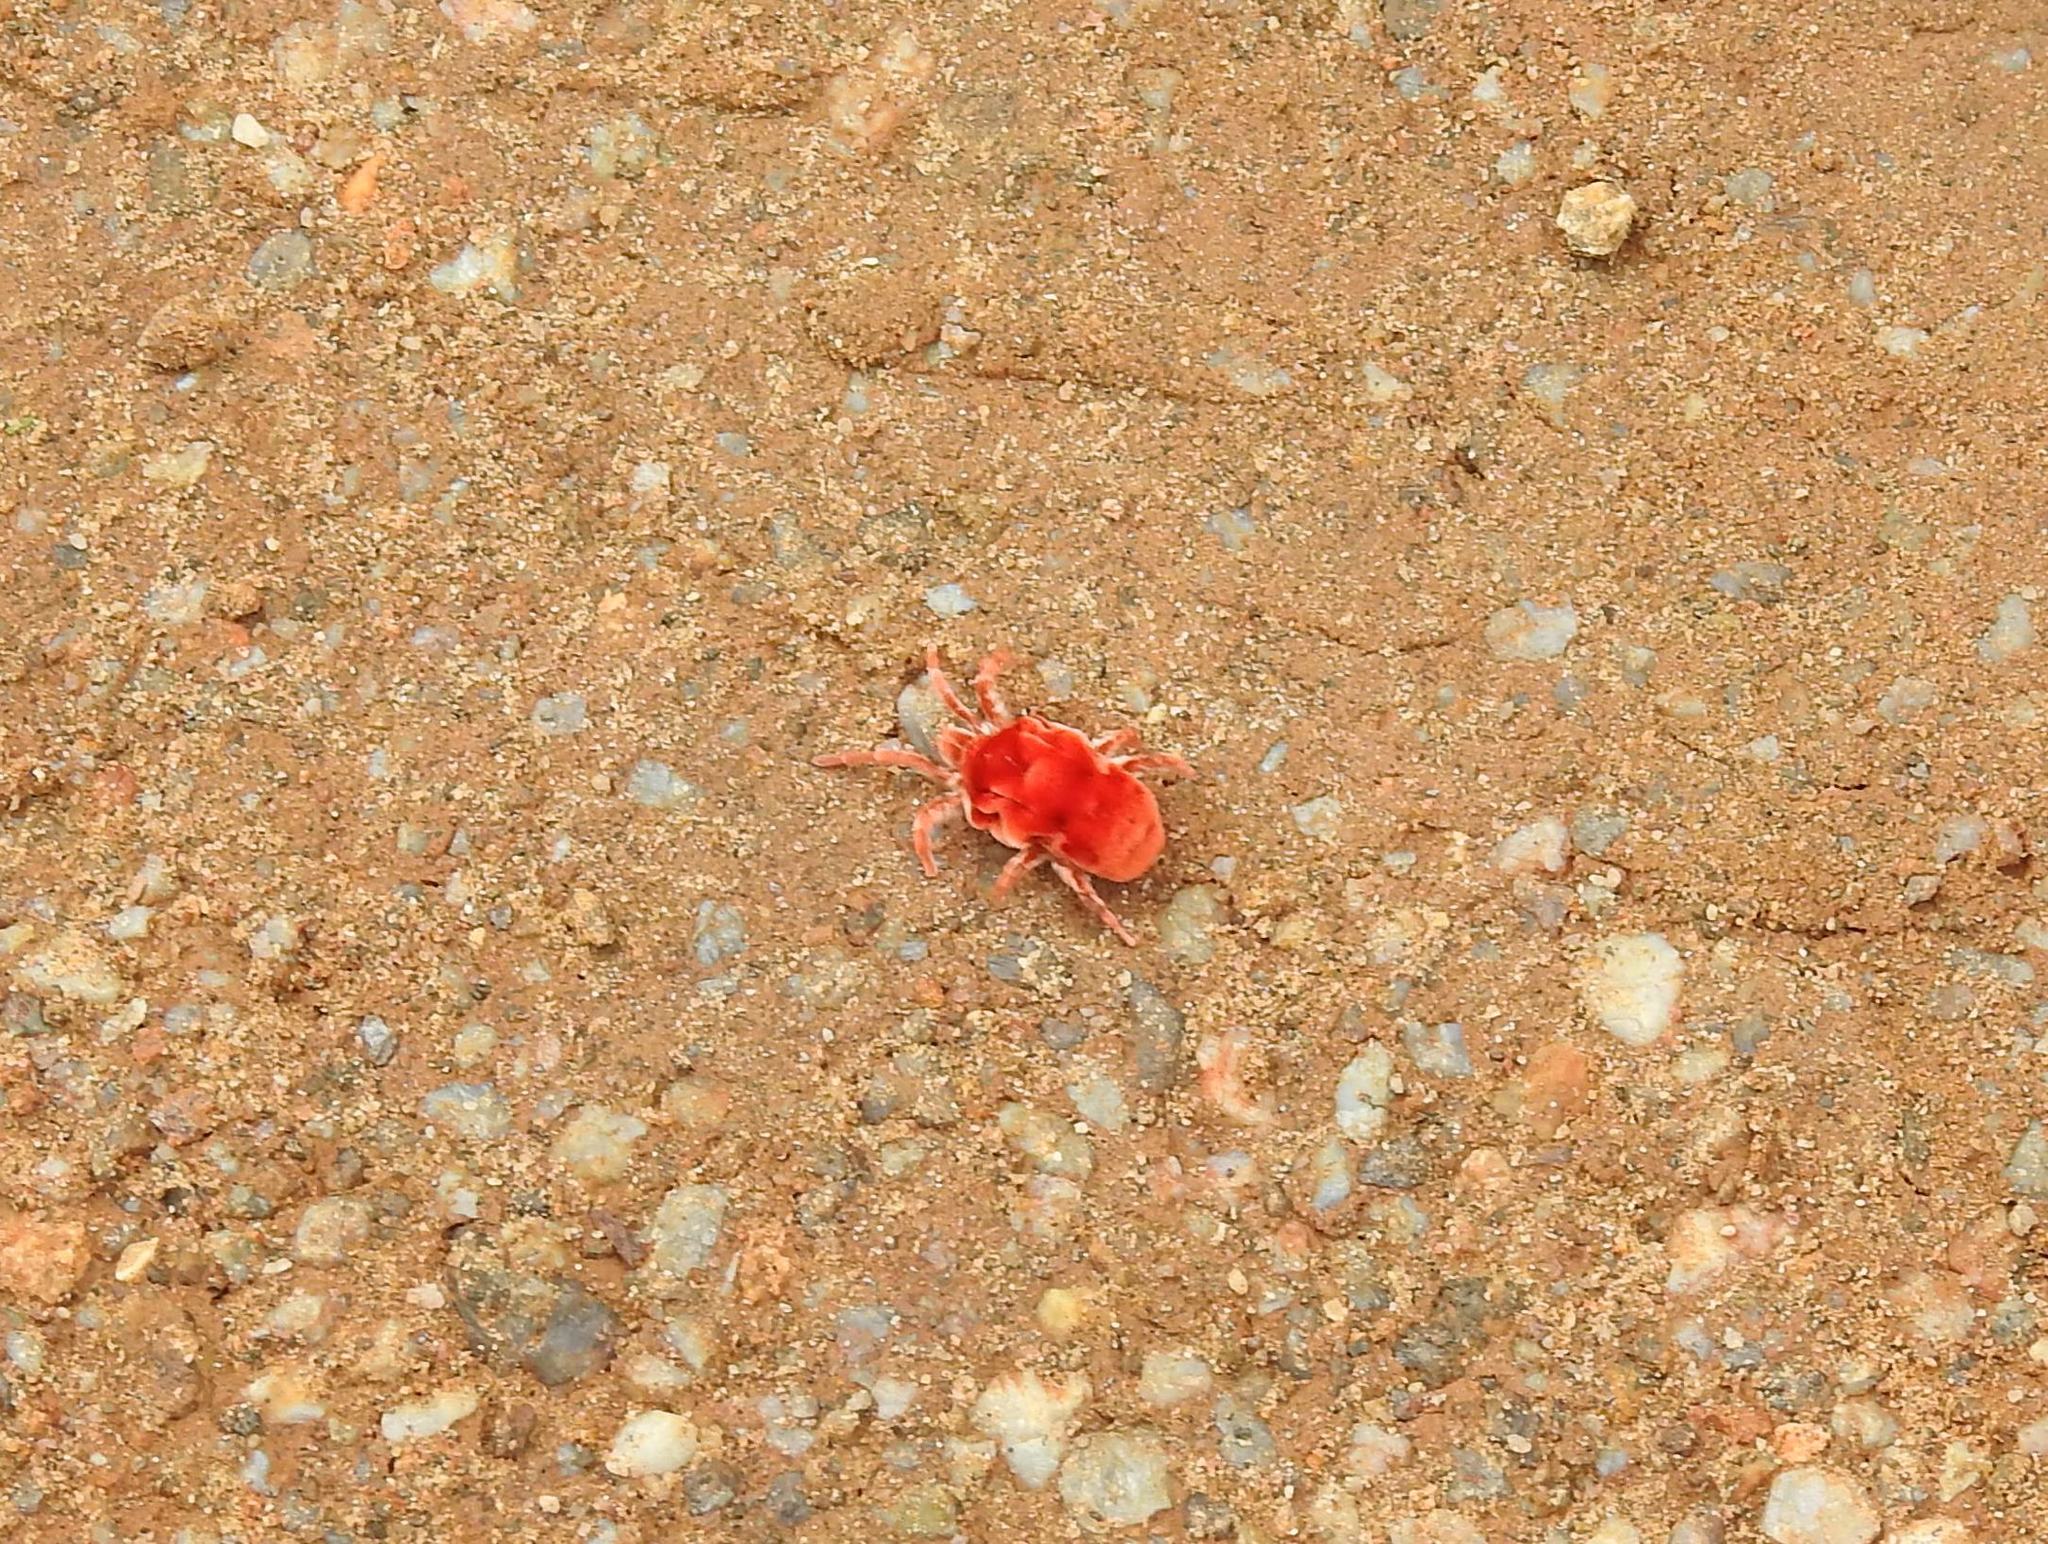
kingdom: Animalia
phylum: Arthropoda
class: Arachnida
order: Trombidiformes
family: Leeuwenhoekiidae
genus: Dinothrombium
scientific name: Dinothrombium
